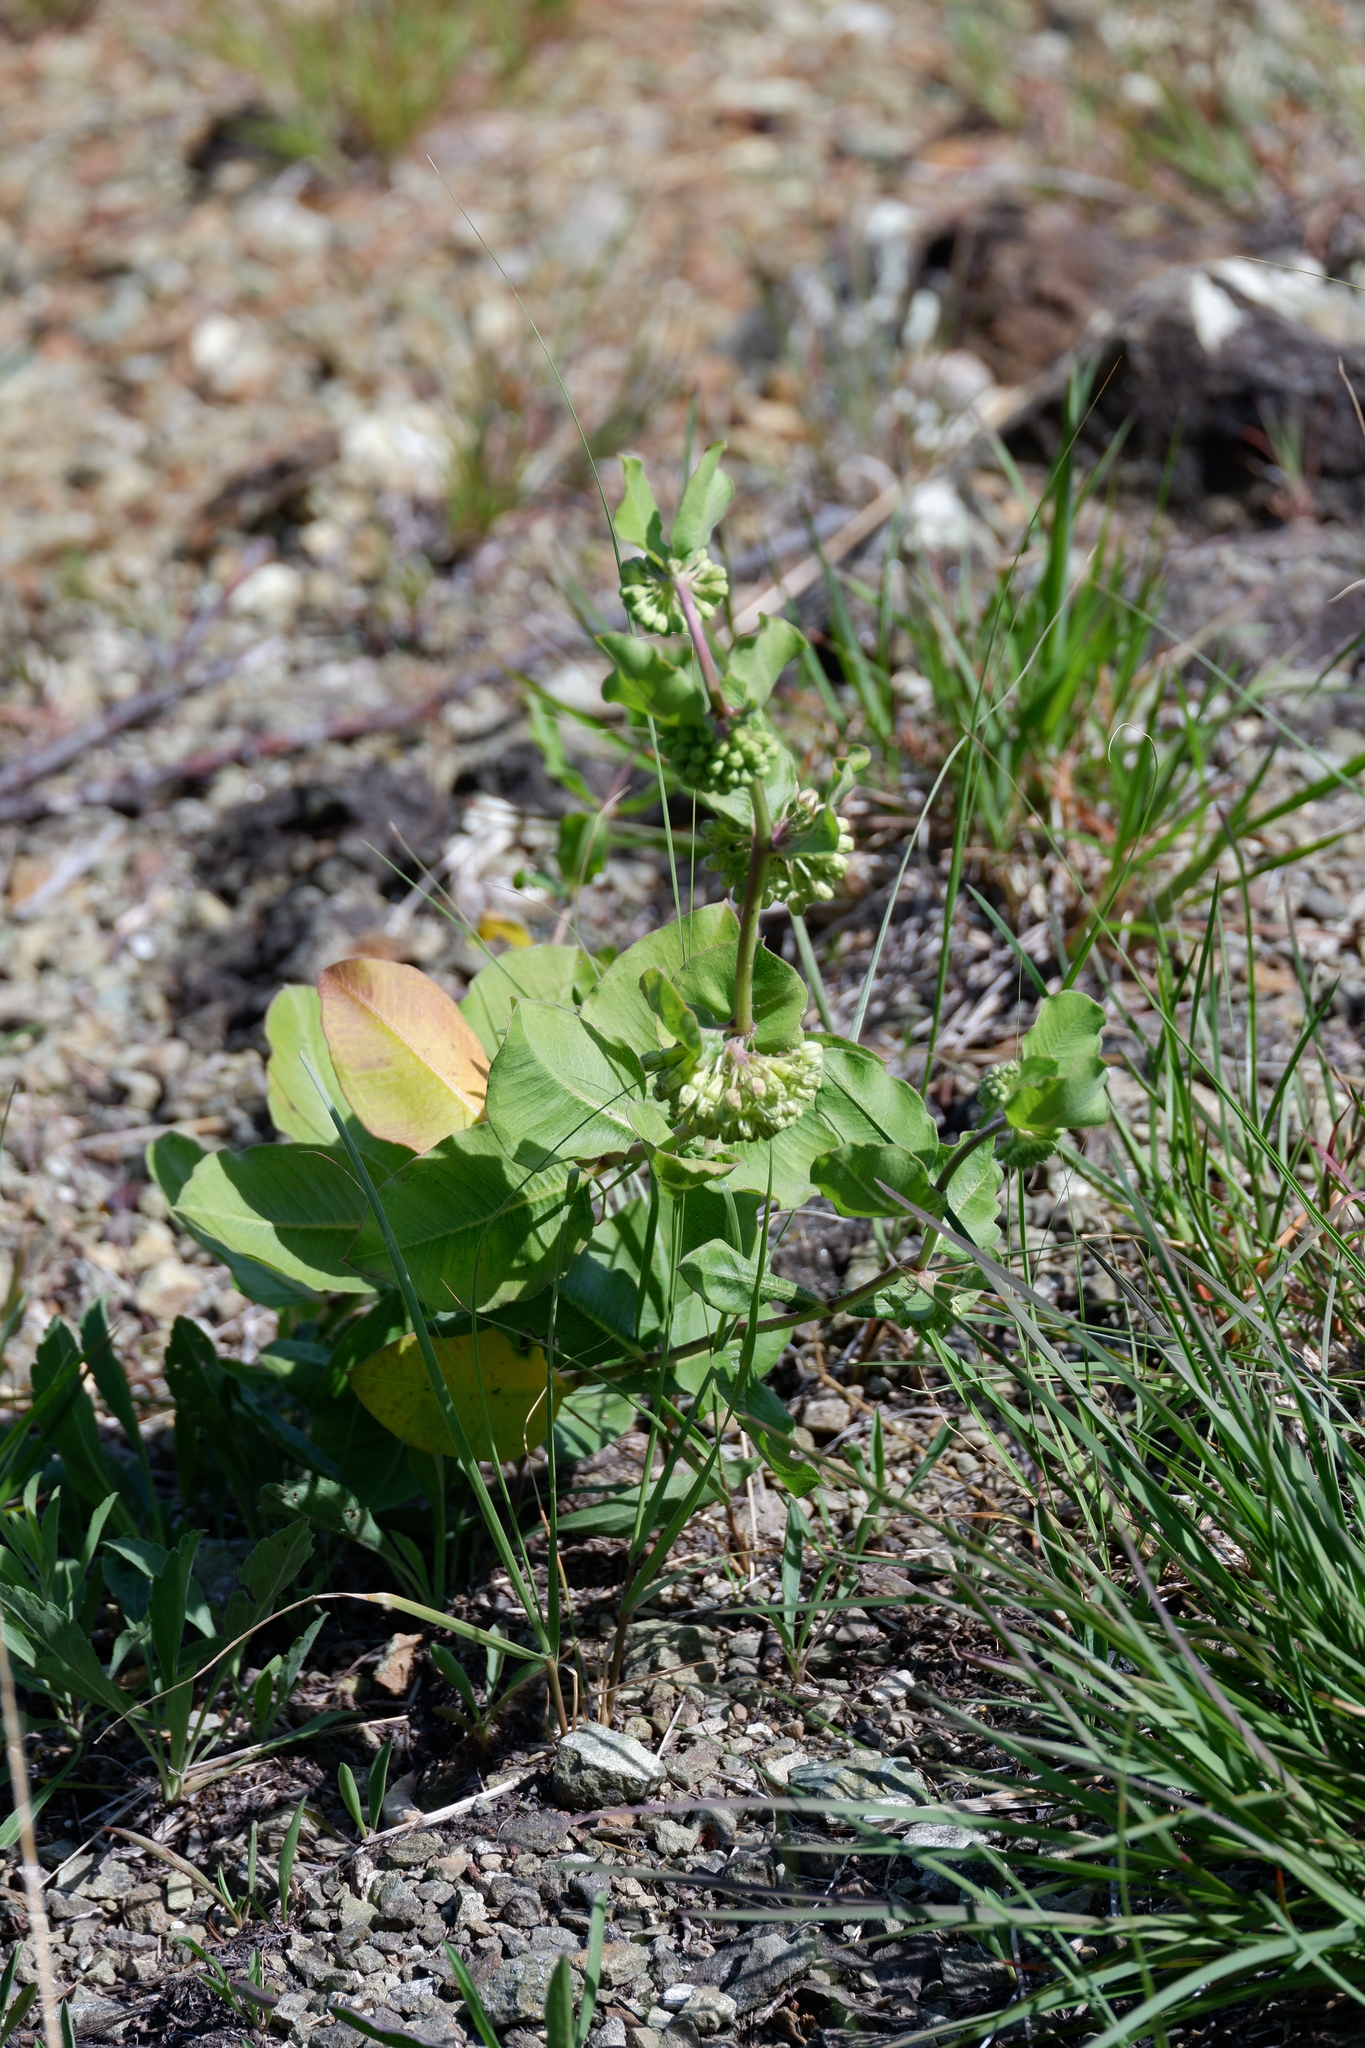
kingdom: Plantae
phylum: Tracheophyta
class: Magnoliopsida
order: Gentianales
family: Apocynaceae
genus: Asclepias
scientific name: Asclepias viridiflora
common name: Green comet milkweed
